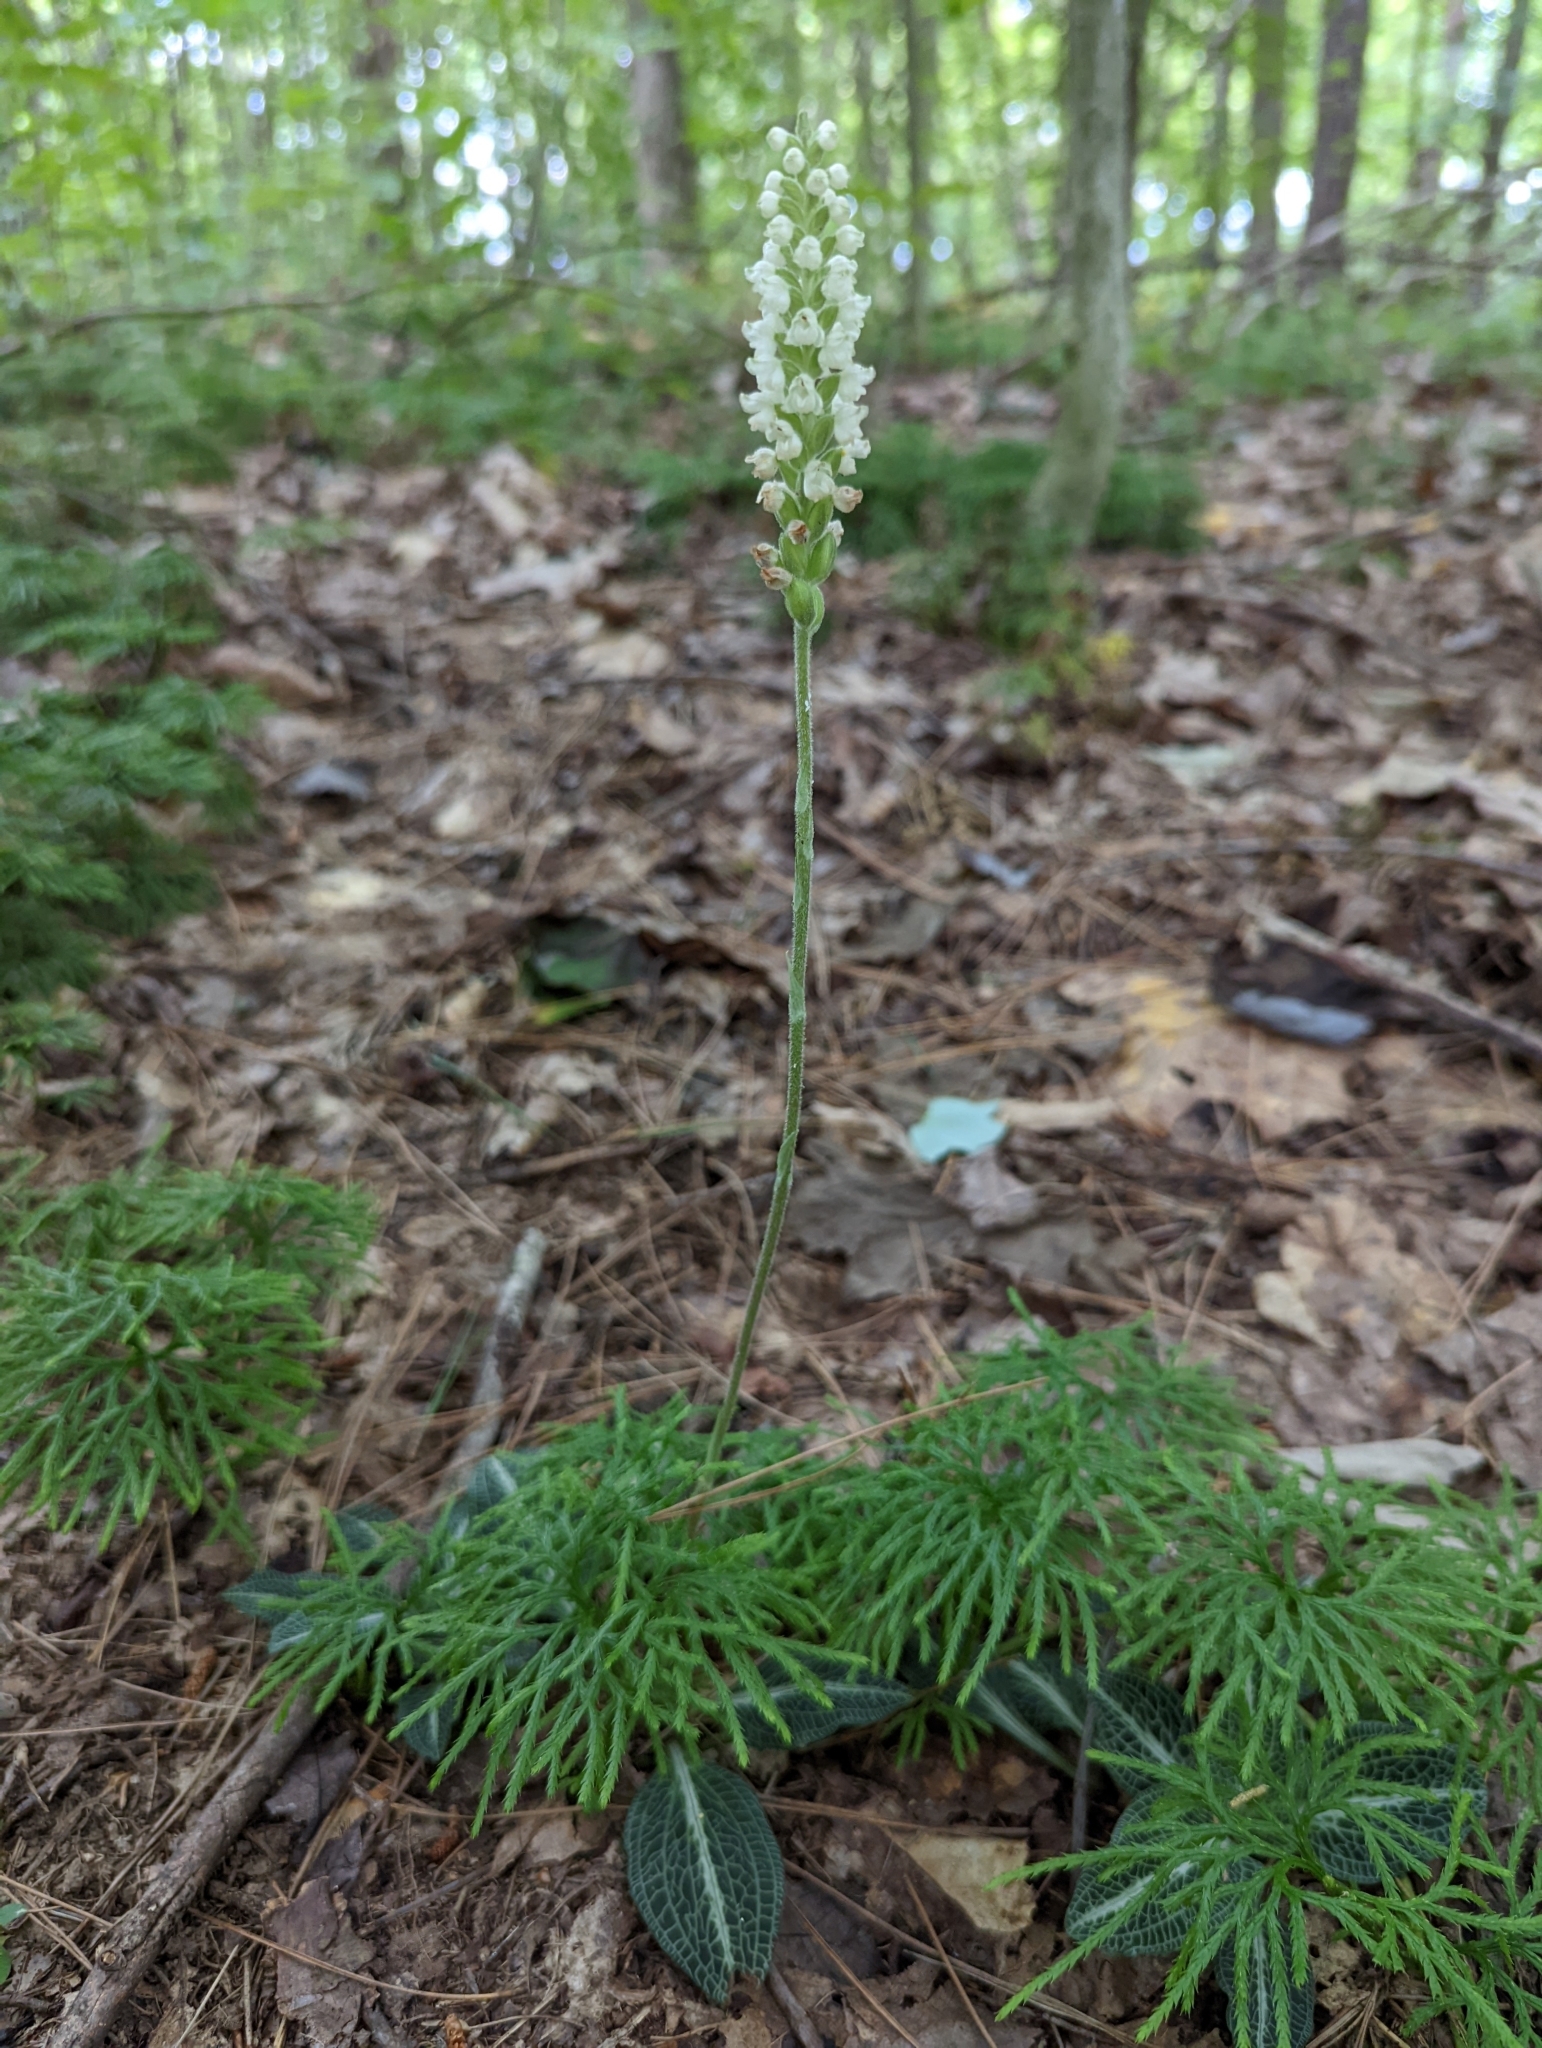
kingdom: Plantae
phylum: Tracheophyta
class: Liliopsida
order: Asparagales
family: Orchidaceae
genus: Goodyera
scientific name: Goodyera pubescens
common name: Downy rattlesnake-plantain
